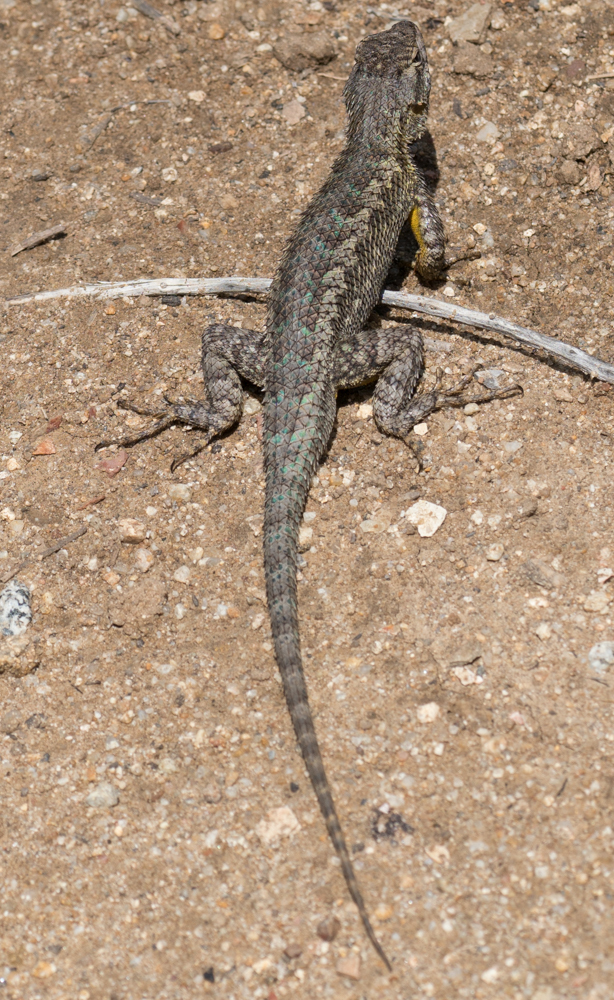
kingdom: Animalia
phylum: Chordata
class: Squamata
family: Phrynosomatidae
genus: Sceloporus
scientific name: Sceloporus occidentalis
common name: Western fence lizard
